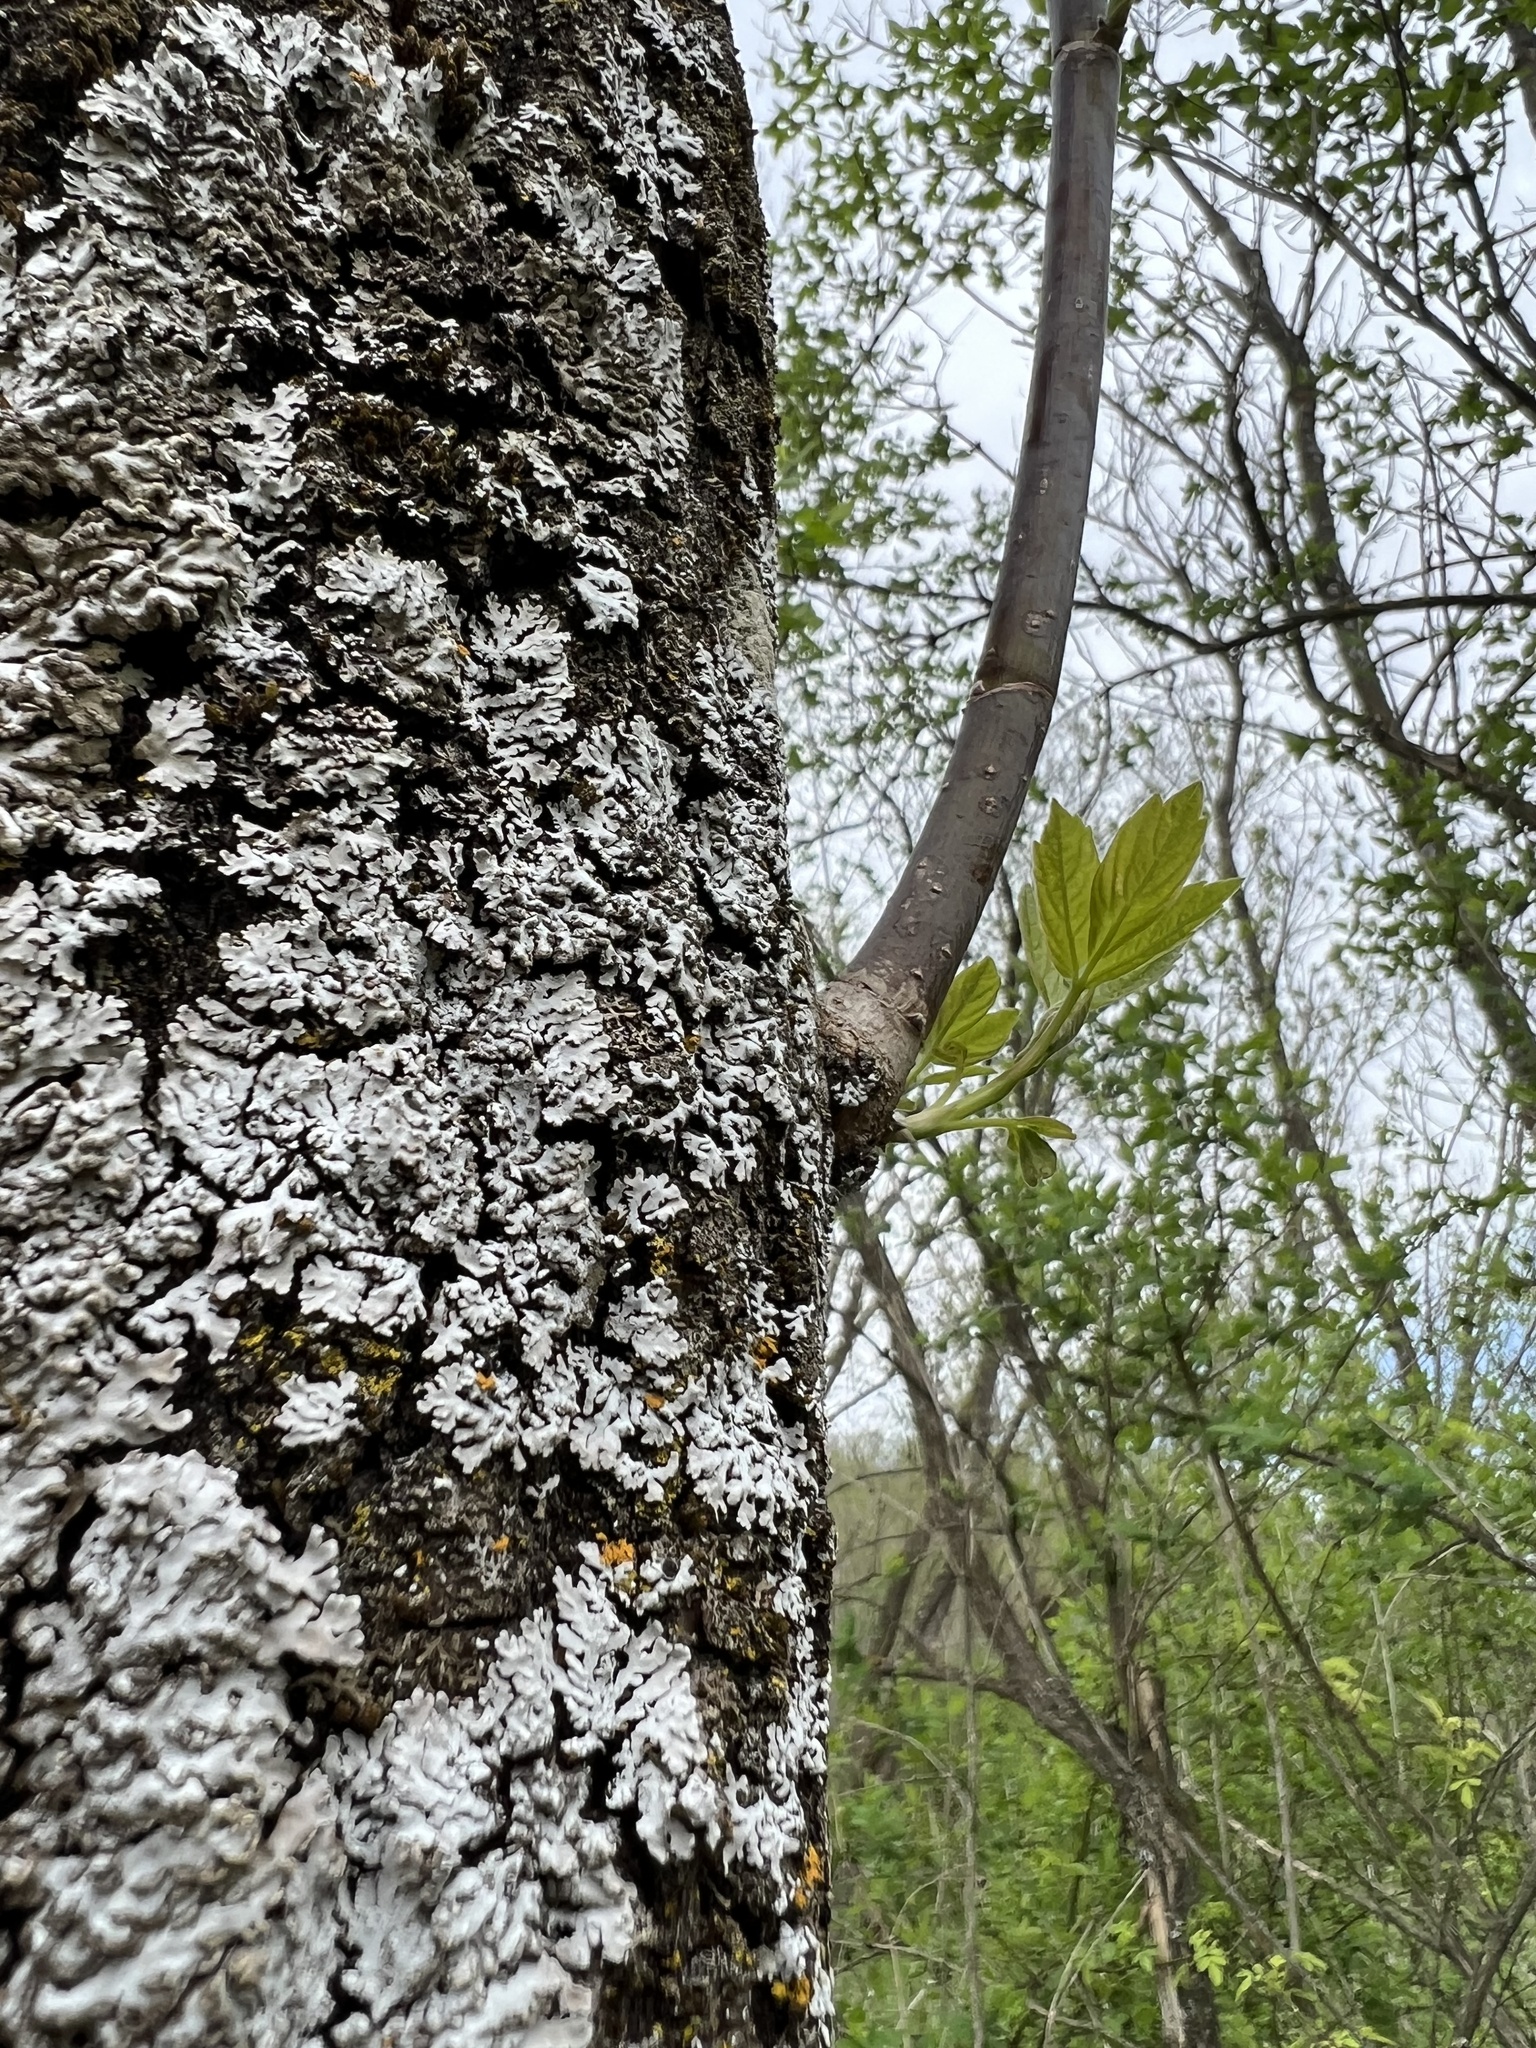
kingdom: Plantae
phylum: Tracheophyta
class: Magnoliopsida
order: Sapindales
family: Sapindaceae
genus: Acer
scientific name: Acer negundo
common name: Ashleaf maple
